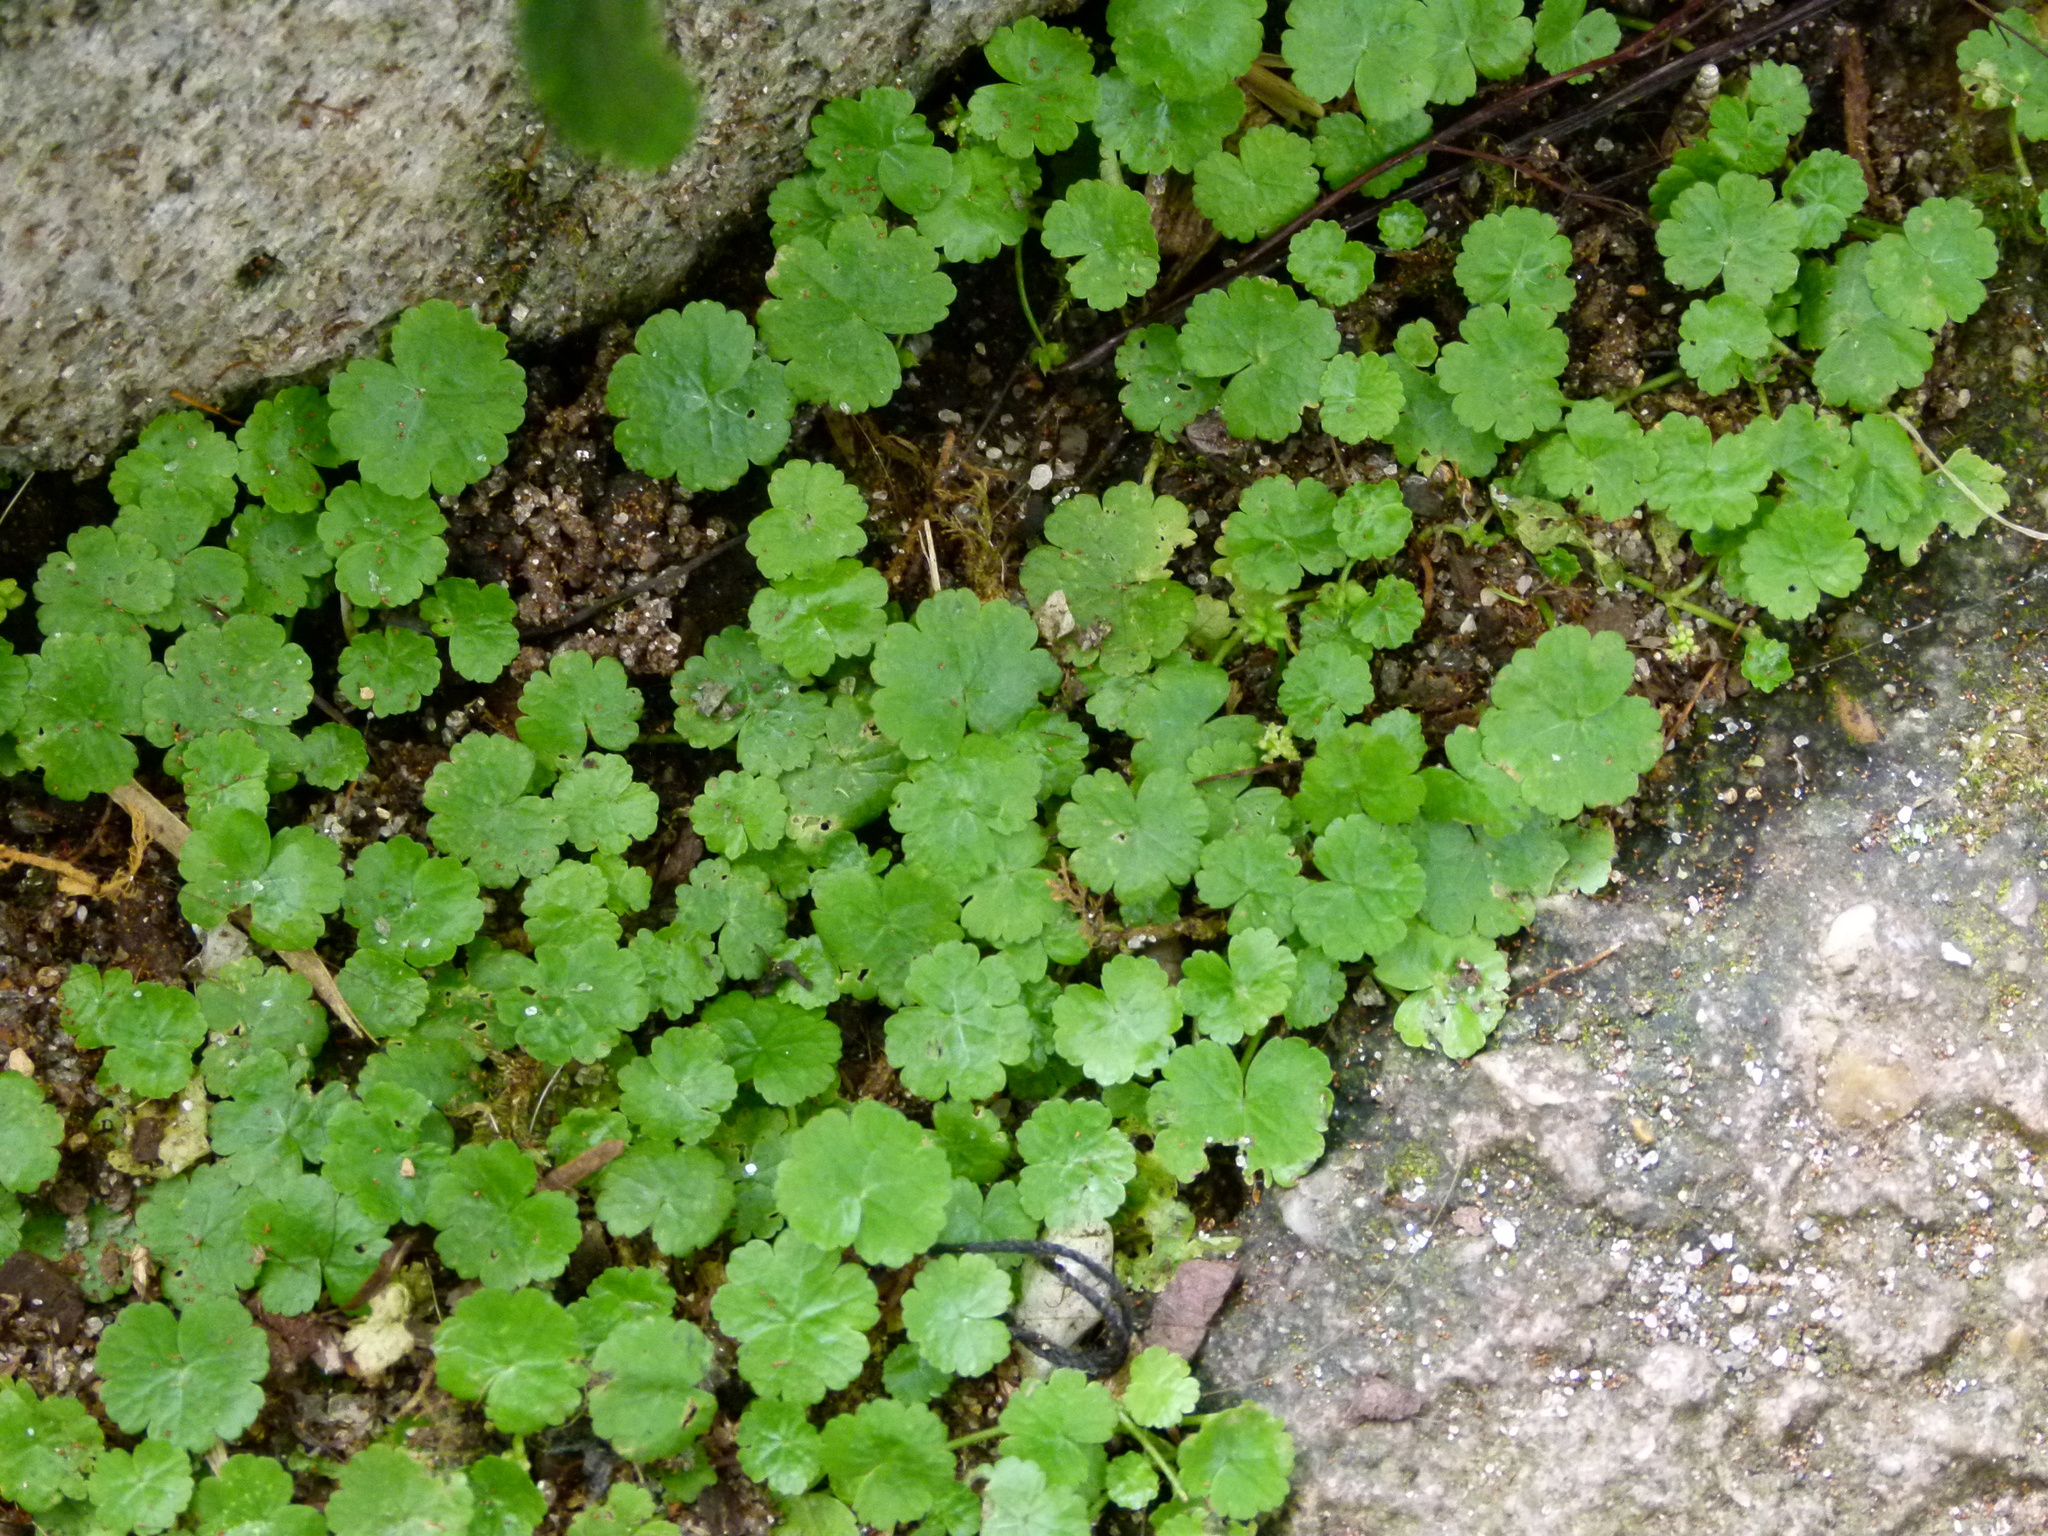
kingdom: Plantae
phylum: Tracheophyta
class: Magnoliopsida
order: Apiales
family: Araliaceae
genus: Hydrocotyle
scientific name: Hydrocotyle sibthorpioides
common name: Lawn marshpennywort
